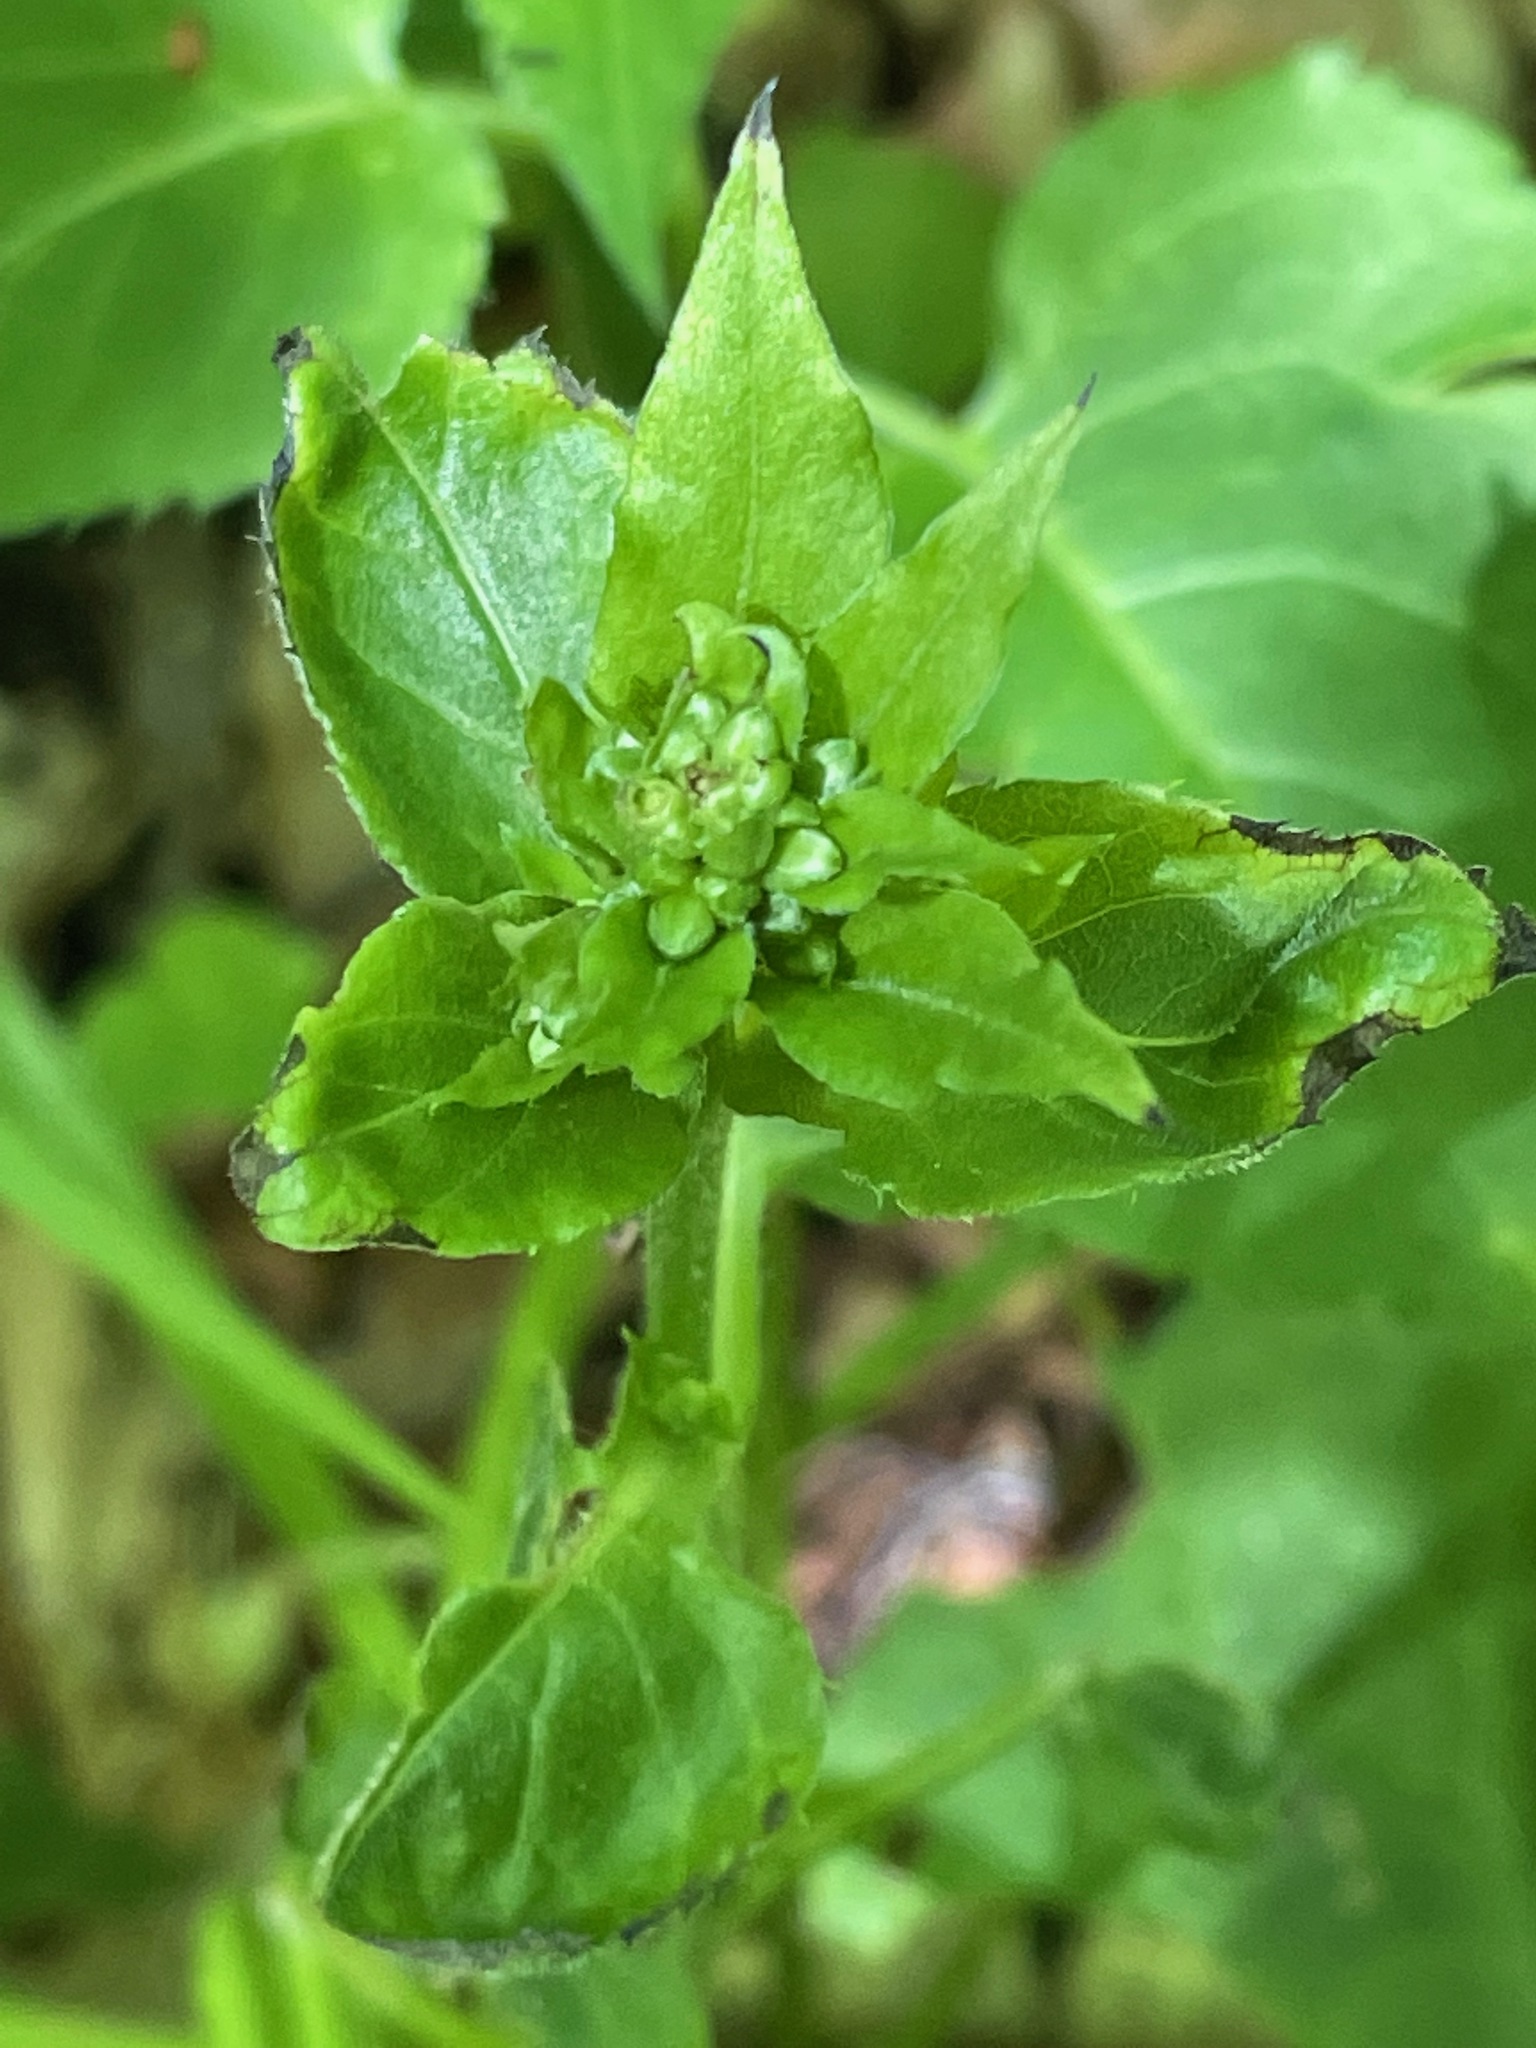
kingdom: Plantae
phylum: Tracheophyta
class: Magnoliopsida
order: Asterales
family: Asteraceae
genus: Eurybia
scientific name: Eurybia macrophylla
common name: Big-leaved aster
